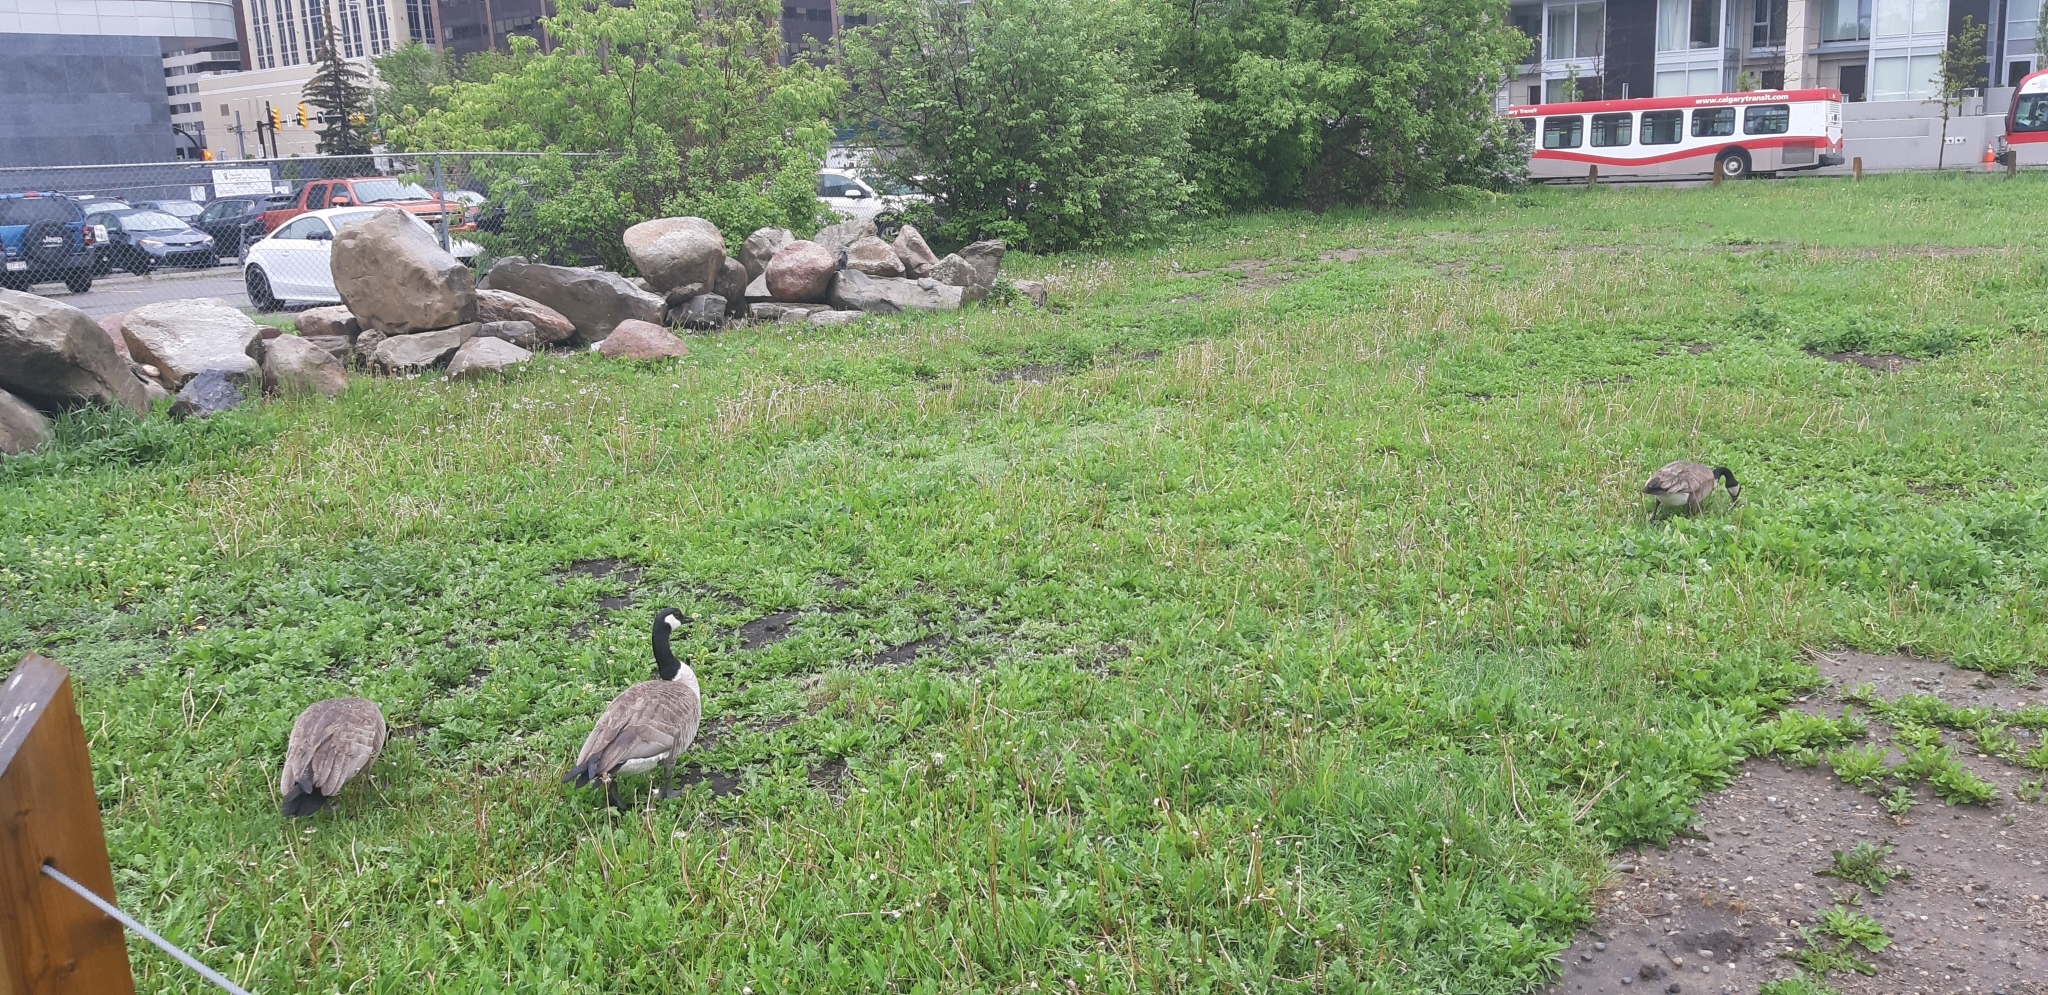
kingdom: Animalia
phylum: Chordata
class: Aves
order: Anseriformes
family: Anatidae
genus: Branta
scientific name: Branta canadensis
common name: Canada goose
